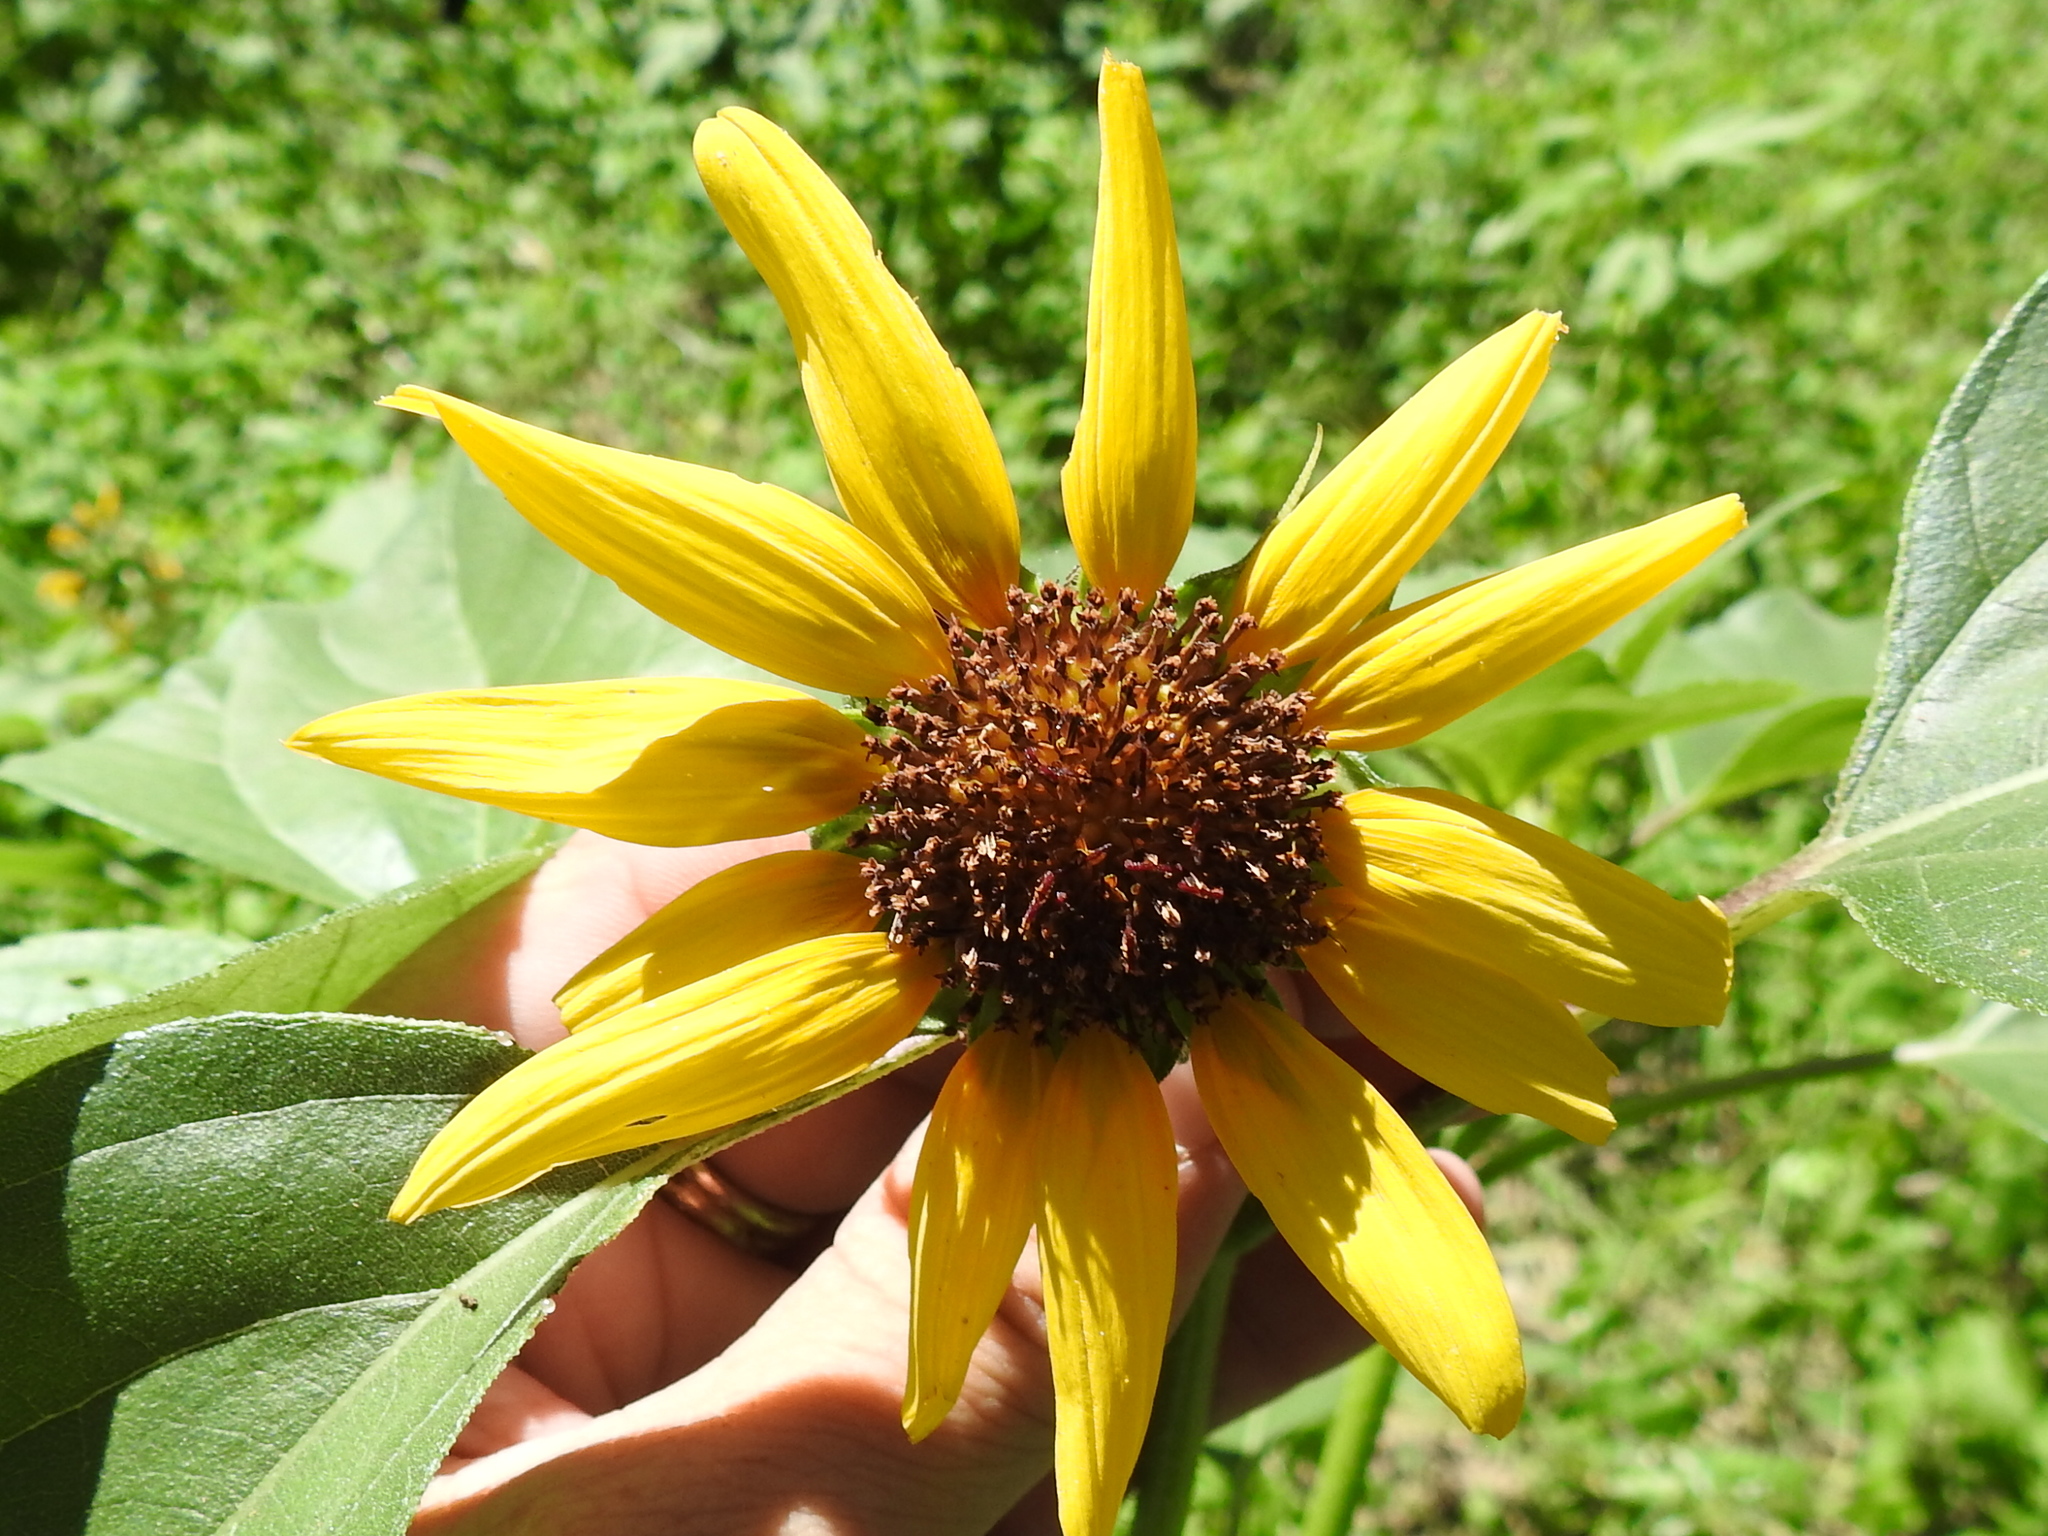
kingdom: Plantae
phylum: Tracheophyta
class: Magnoliopsida
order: Asterales
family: Asteraceae
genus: Helianthus
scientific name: Helianthus annuus
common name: Sunflower
